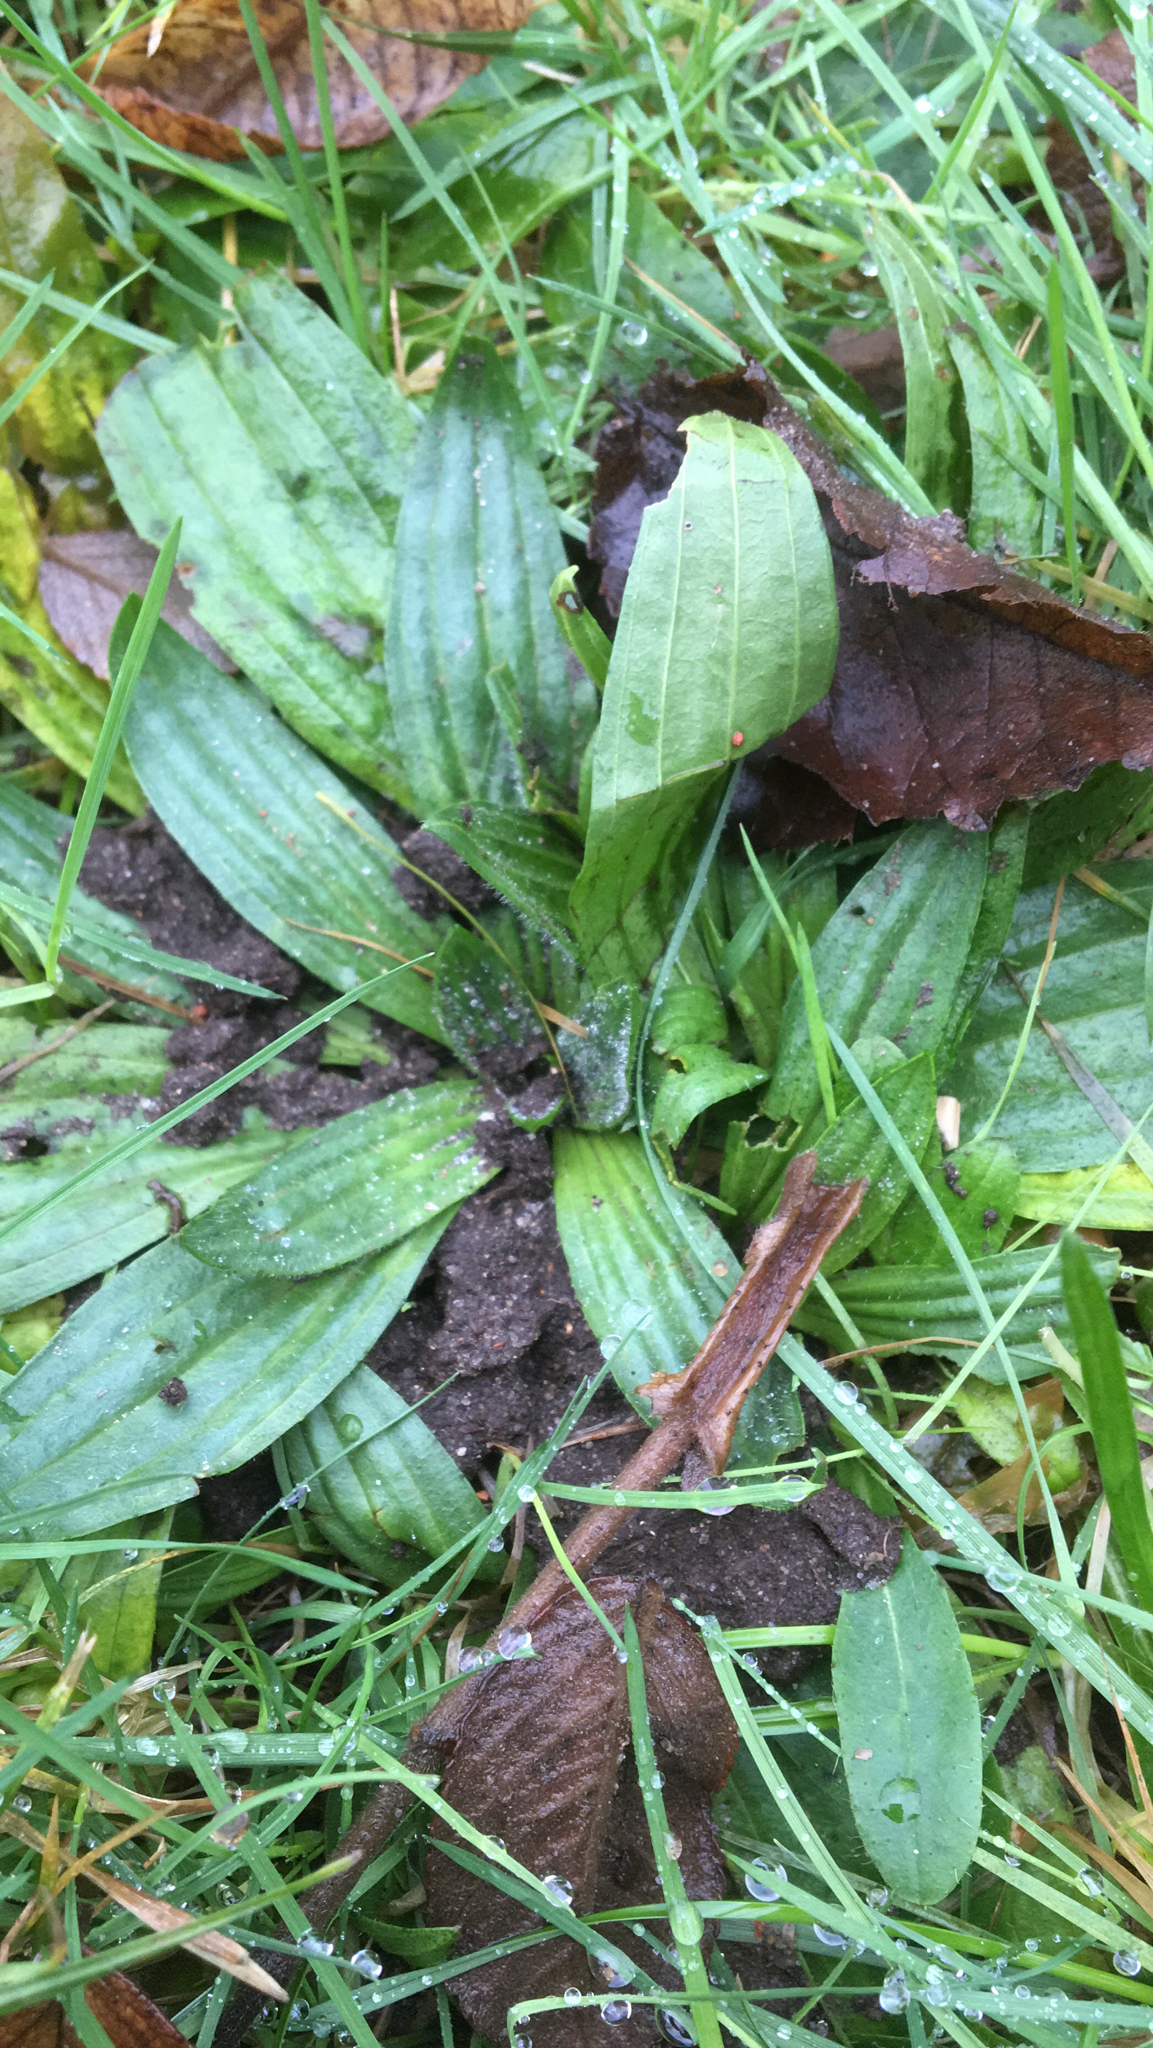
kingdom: Plantae
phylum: Tracheophyta
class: Magnoliopsida
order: Lamiales
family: Plantaginaceae
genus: Plantago
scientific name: Plantago lanceolata
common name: Ribwort plantain
